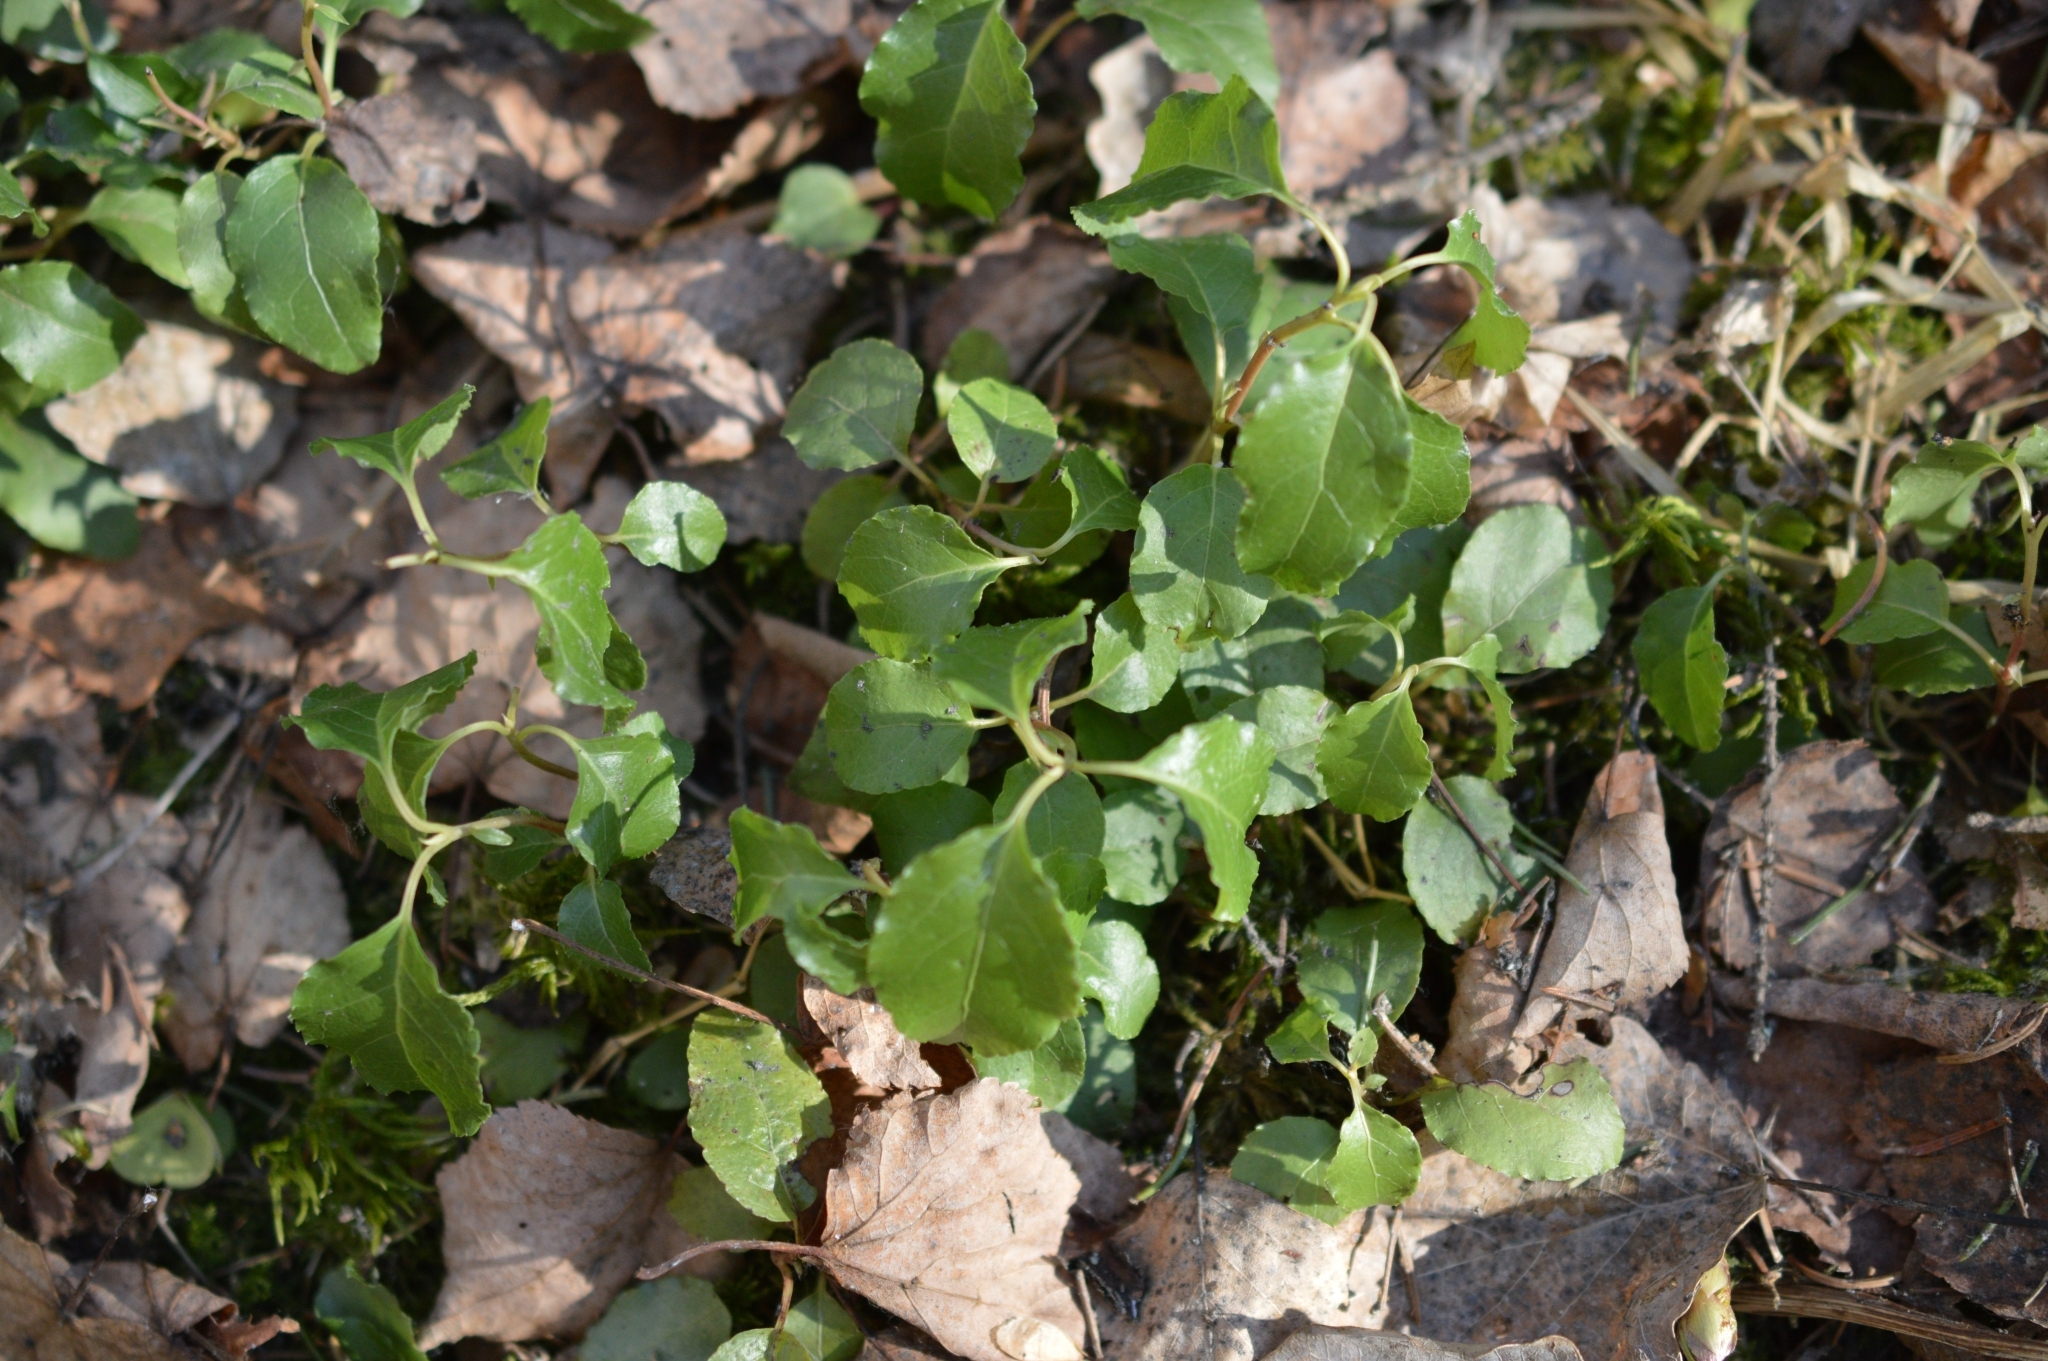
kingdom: Plantae
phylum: Tracheophyta
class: Magnoliopsida
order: Ericales
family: Ericaceae
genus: Orthilia
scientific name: Orthilia secunda
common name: One-sided orthilia
